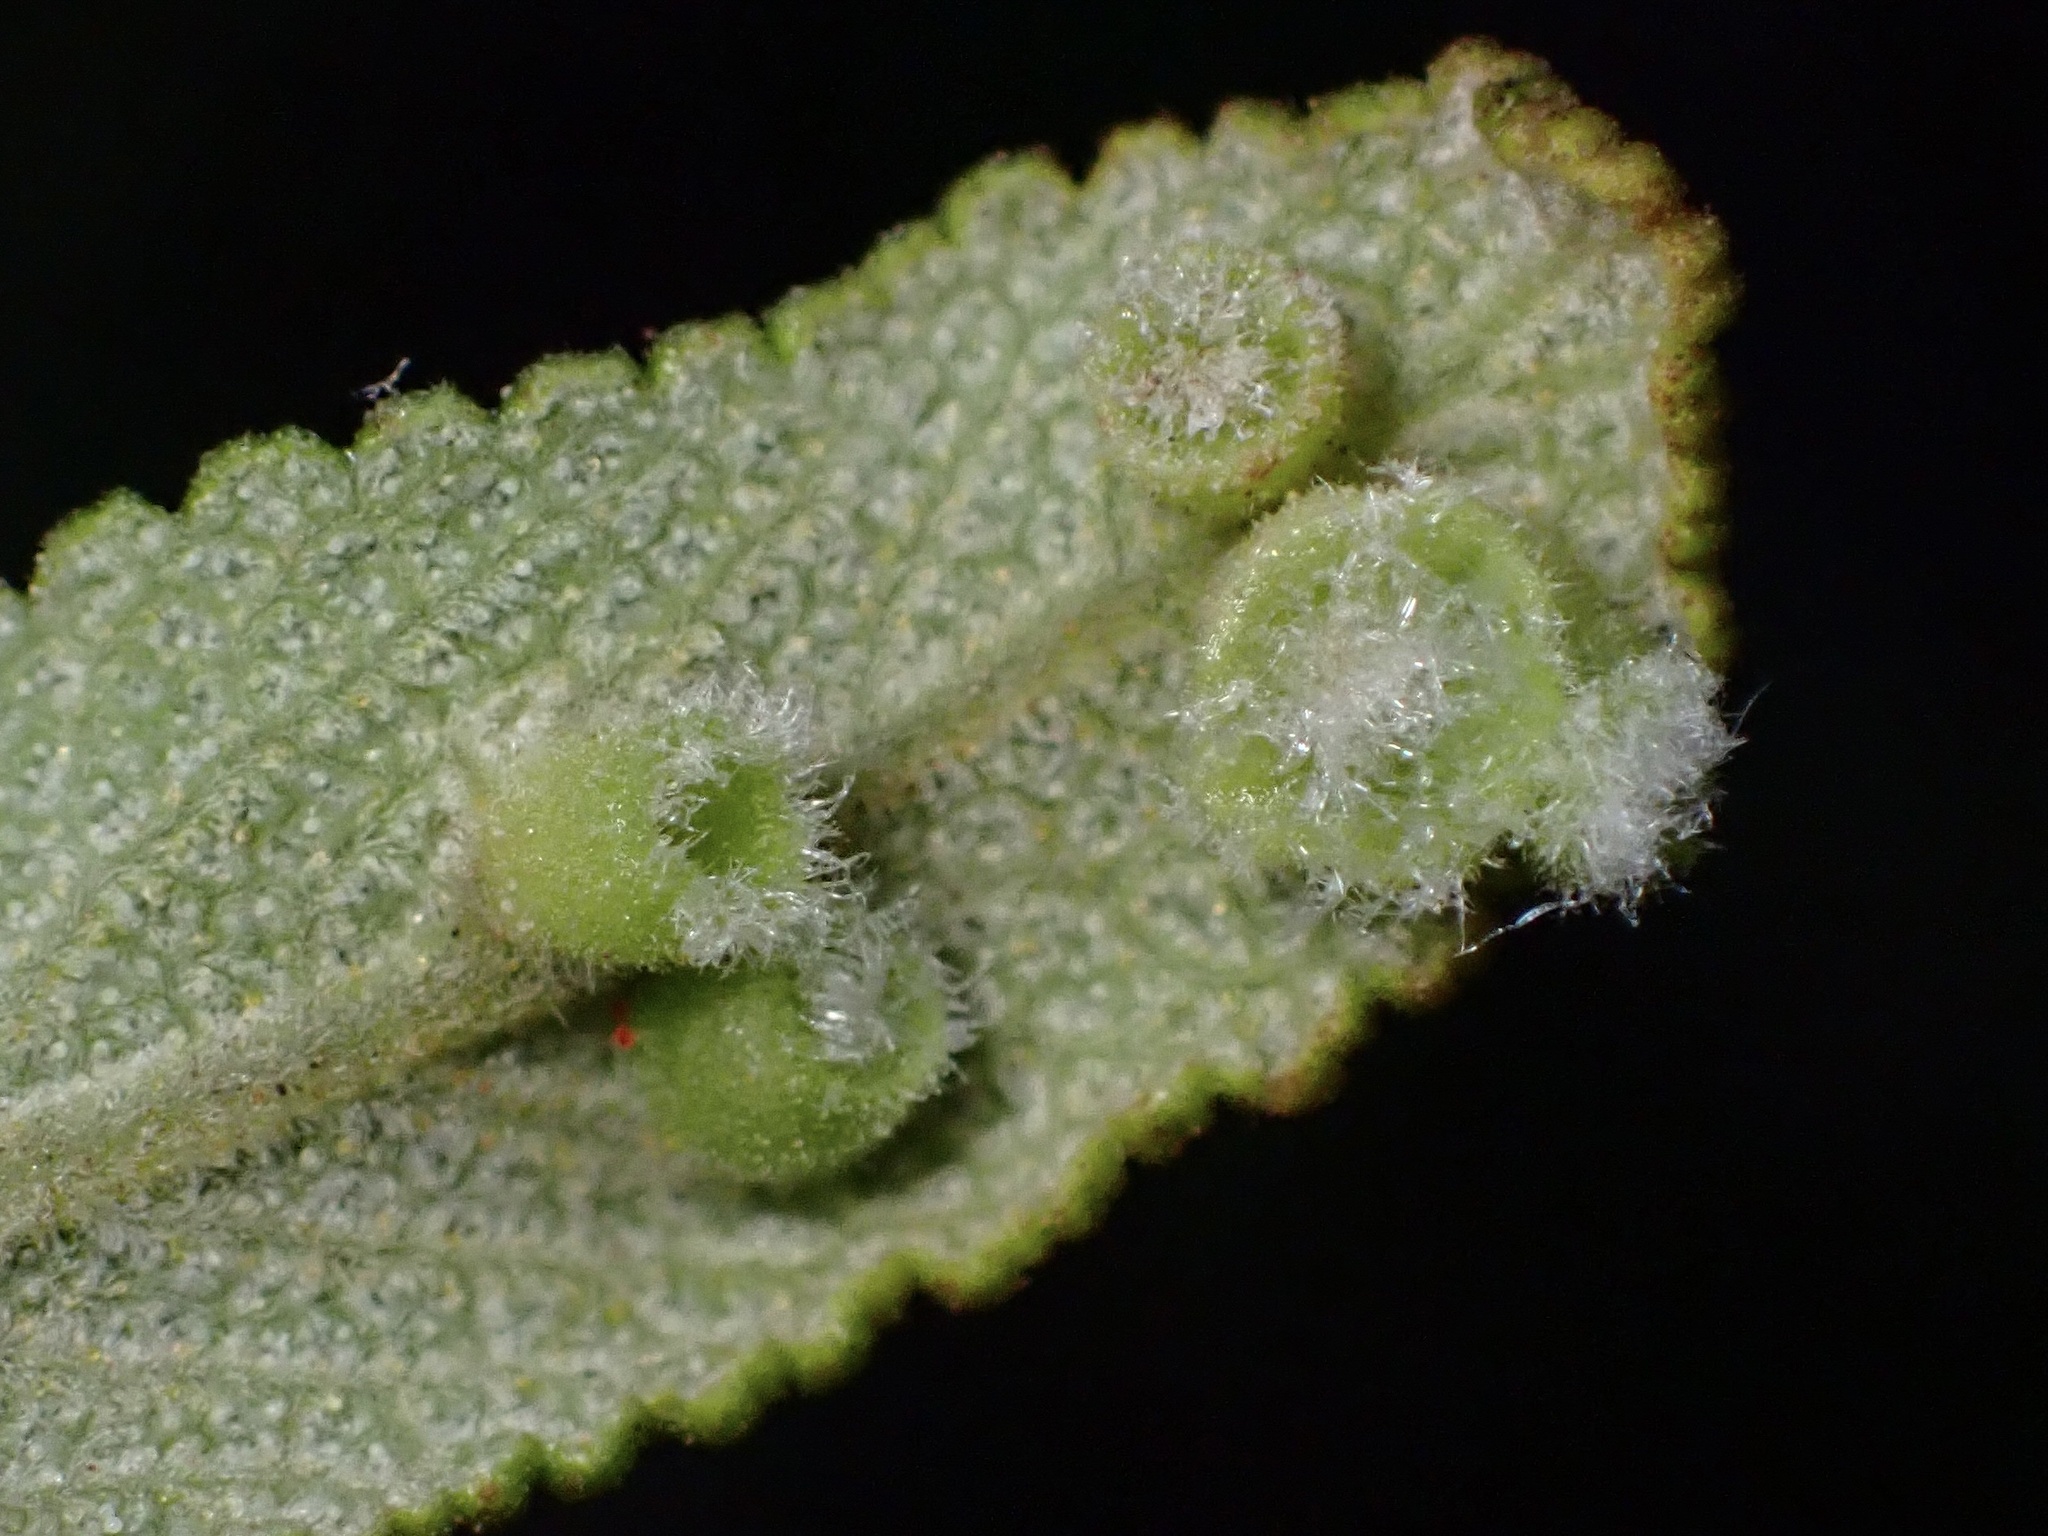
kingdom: Animalia
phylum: Arthropoda
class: Insecta
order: Diptera
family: Cecidomyiidae
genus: Rhopalomyia
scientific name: Rhopalomyia audibertiae
